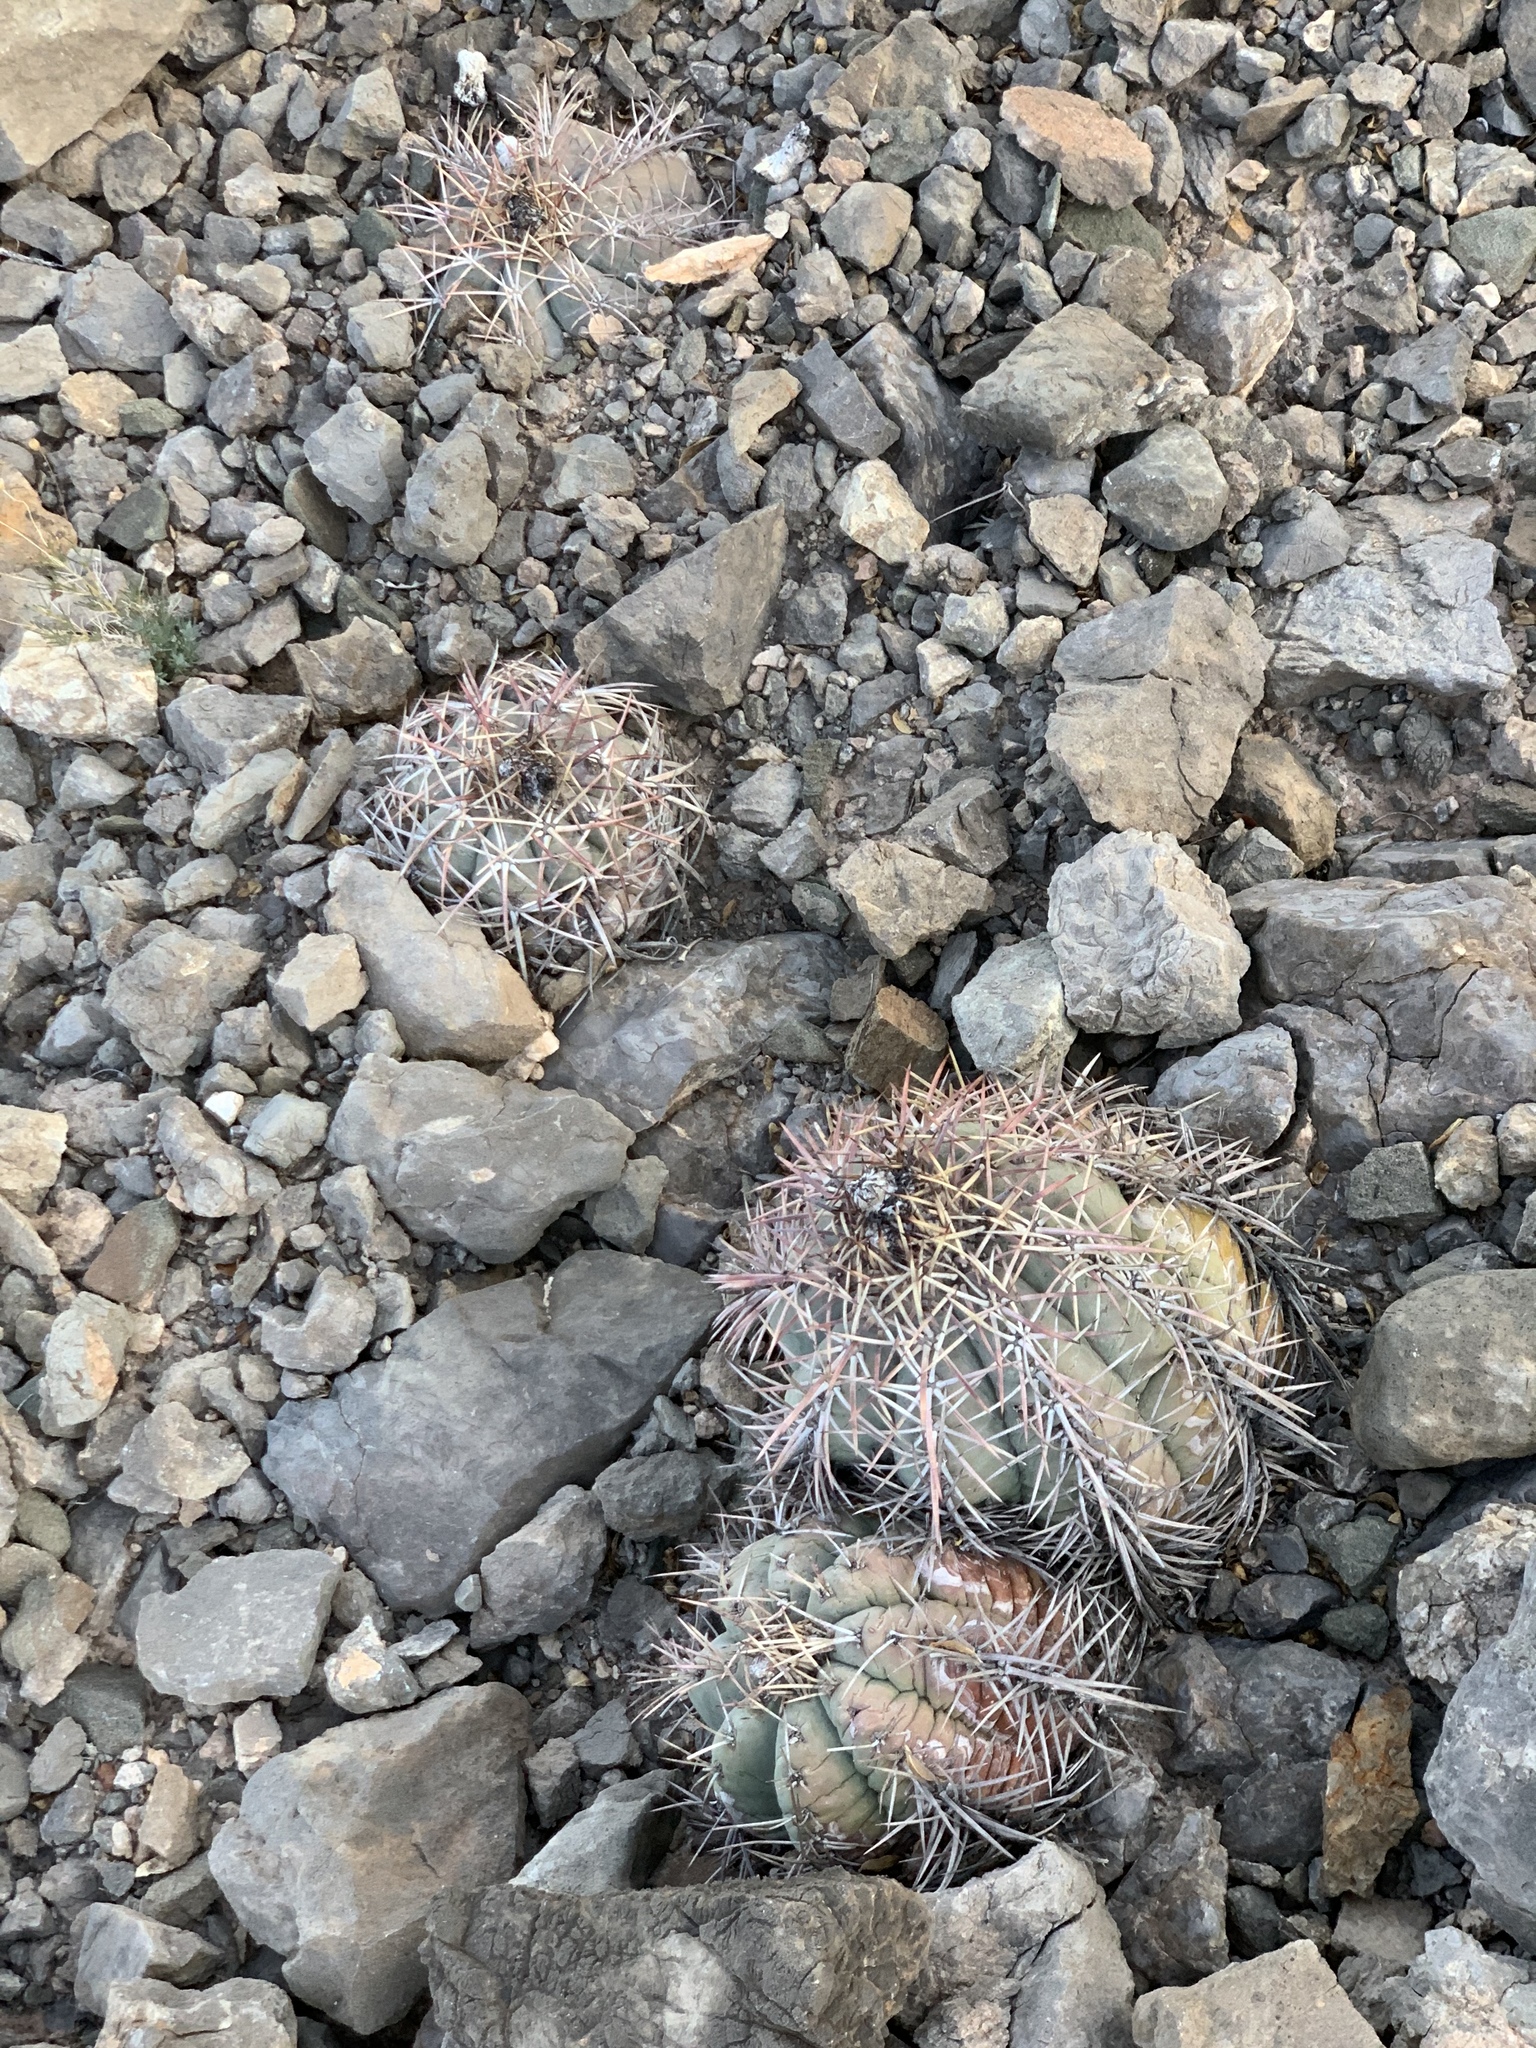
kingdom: Plantae
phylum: Tracheophyta
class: Magnoliopsida
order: Caryophyllales
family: Cactaceae
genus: Echinocactus
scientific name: Echinocactus horizonthalonius
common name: Devilshead
